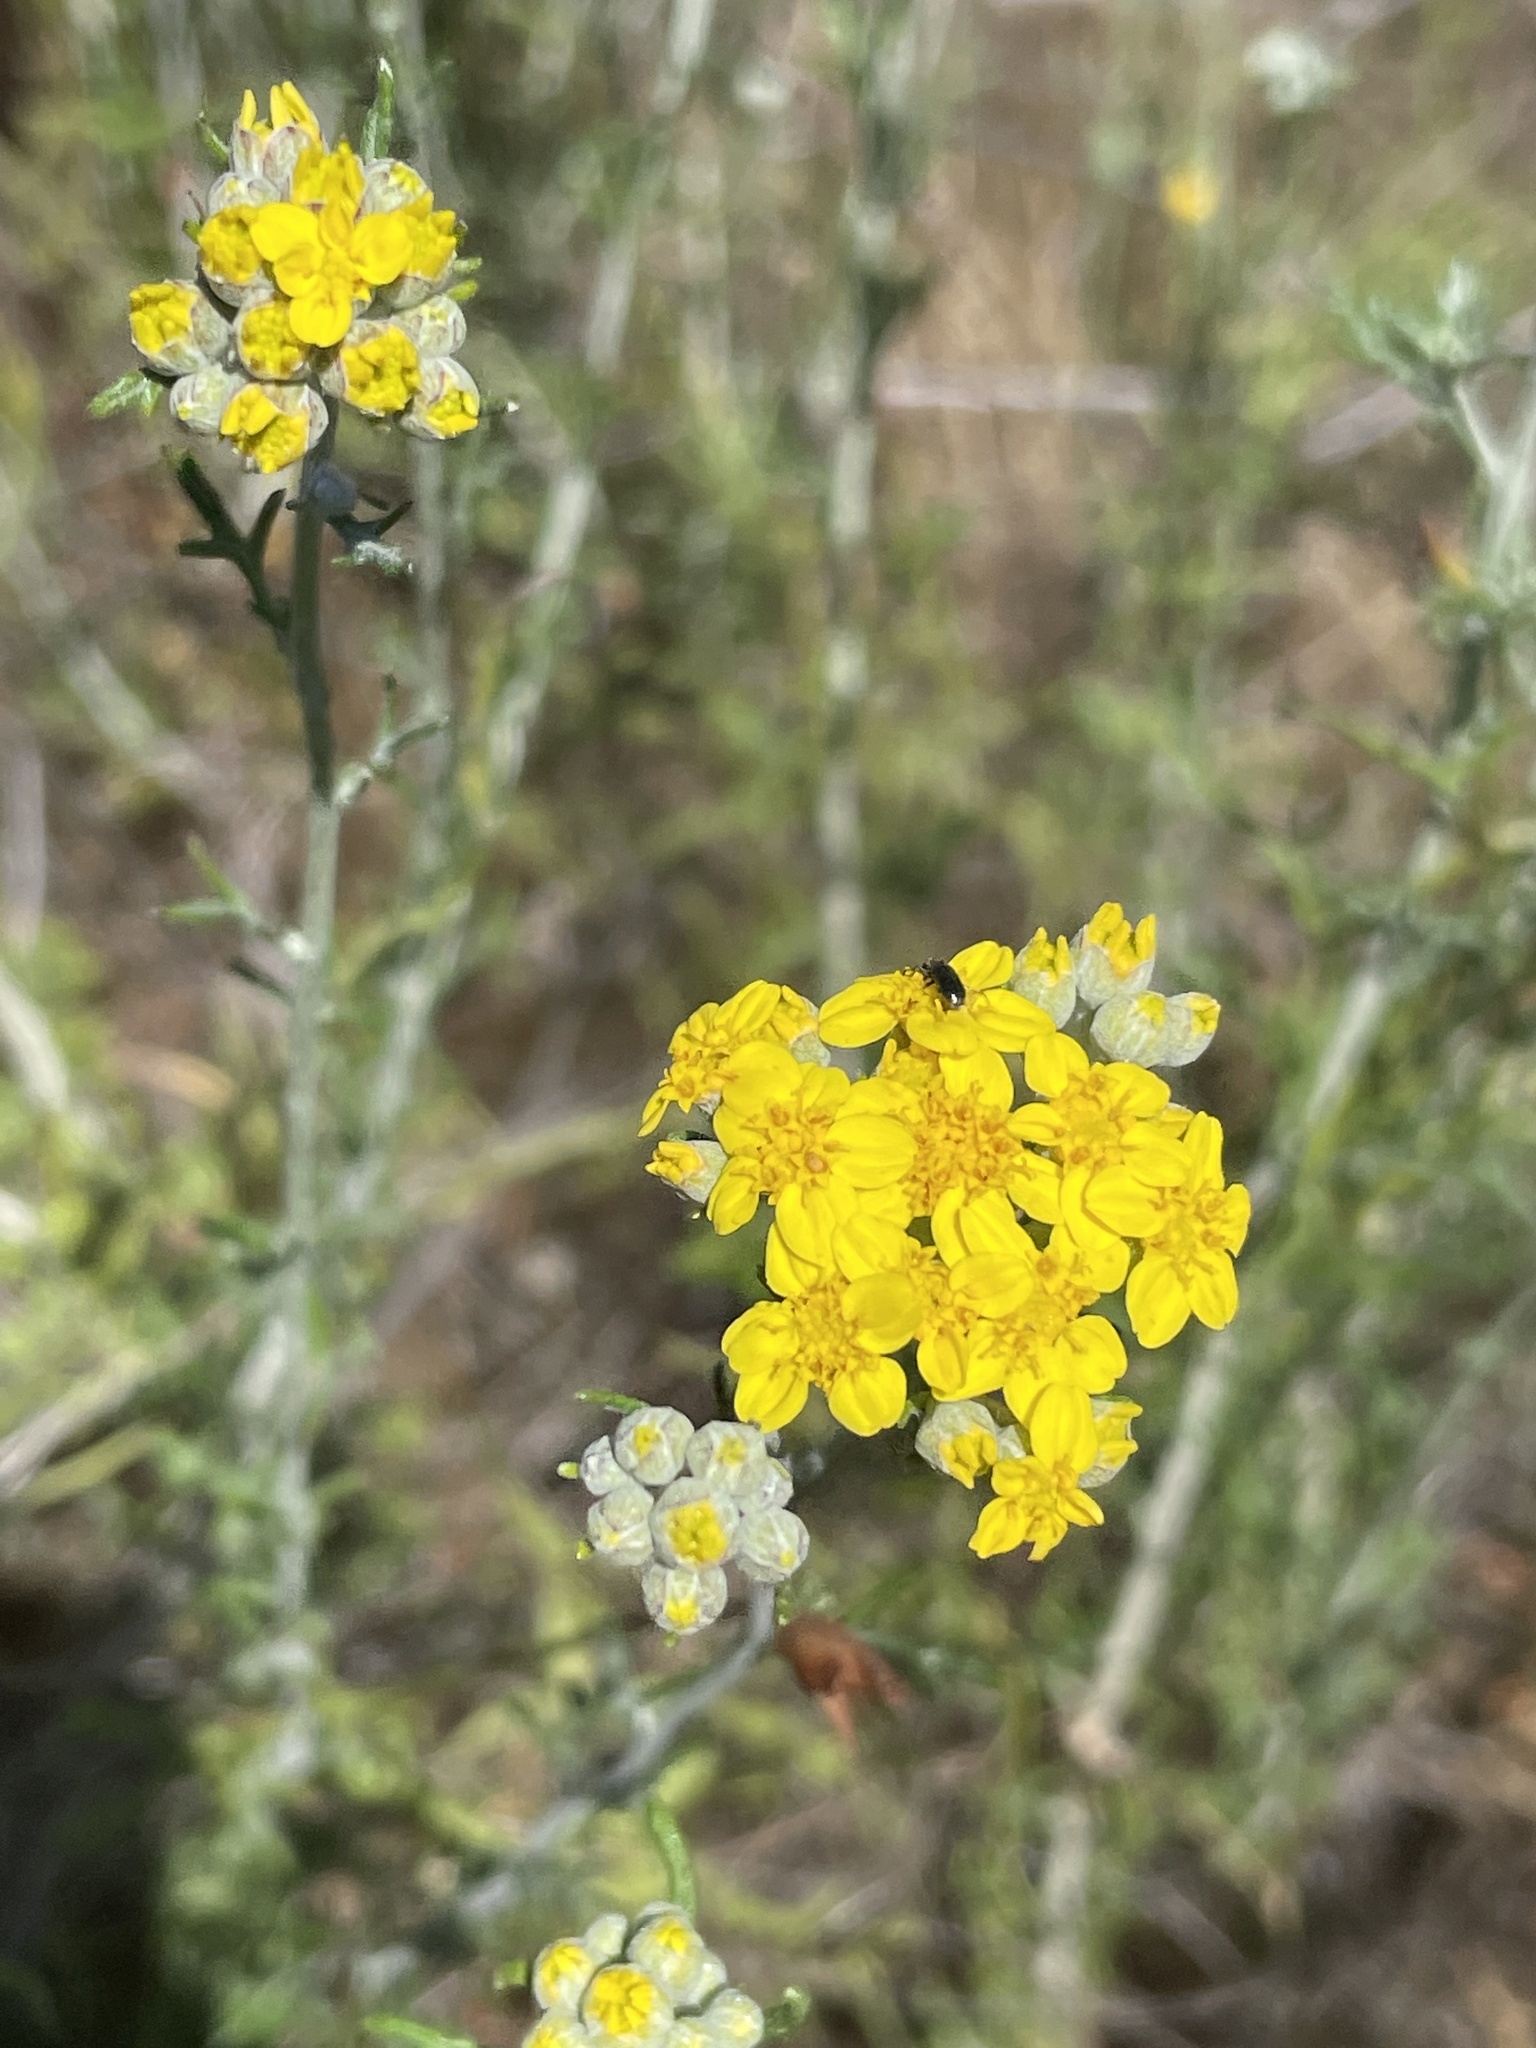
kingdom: Plantae
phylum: Tracheophyta
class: Magnoliopsida
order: Asterales
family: Asteraceae
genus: Eriophyllum
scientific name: Eriophyllum confertiflorum
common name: Golden-yarrow
